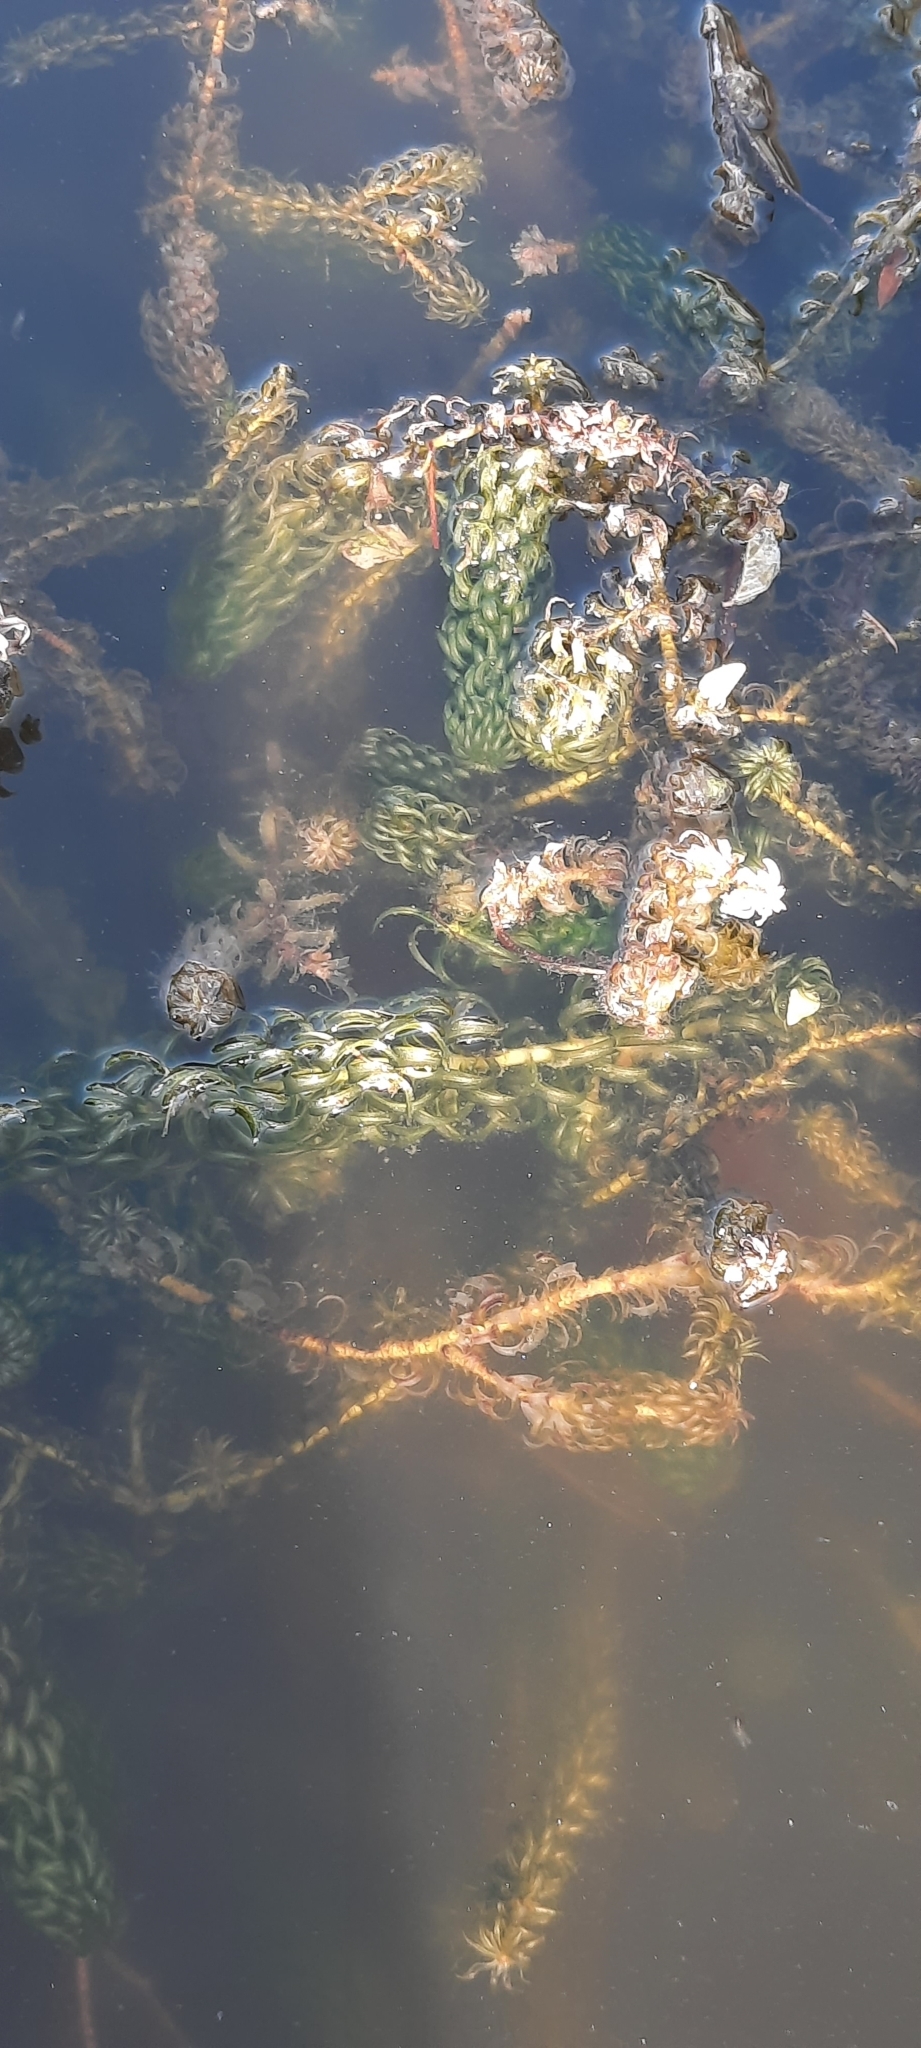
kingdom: Plantae
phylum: Tracheophyta
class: Liliopsida
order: Alismatales
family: Hydrocharitaceae
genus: Lagarosiphon
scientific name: Lagarosiphon major
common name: Curly waterweed
